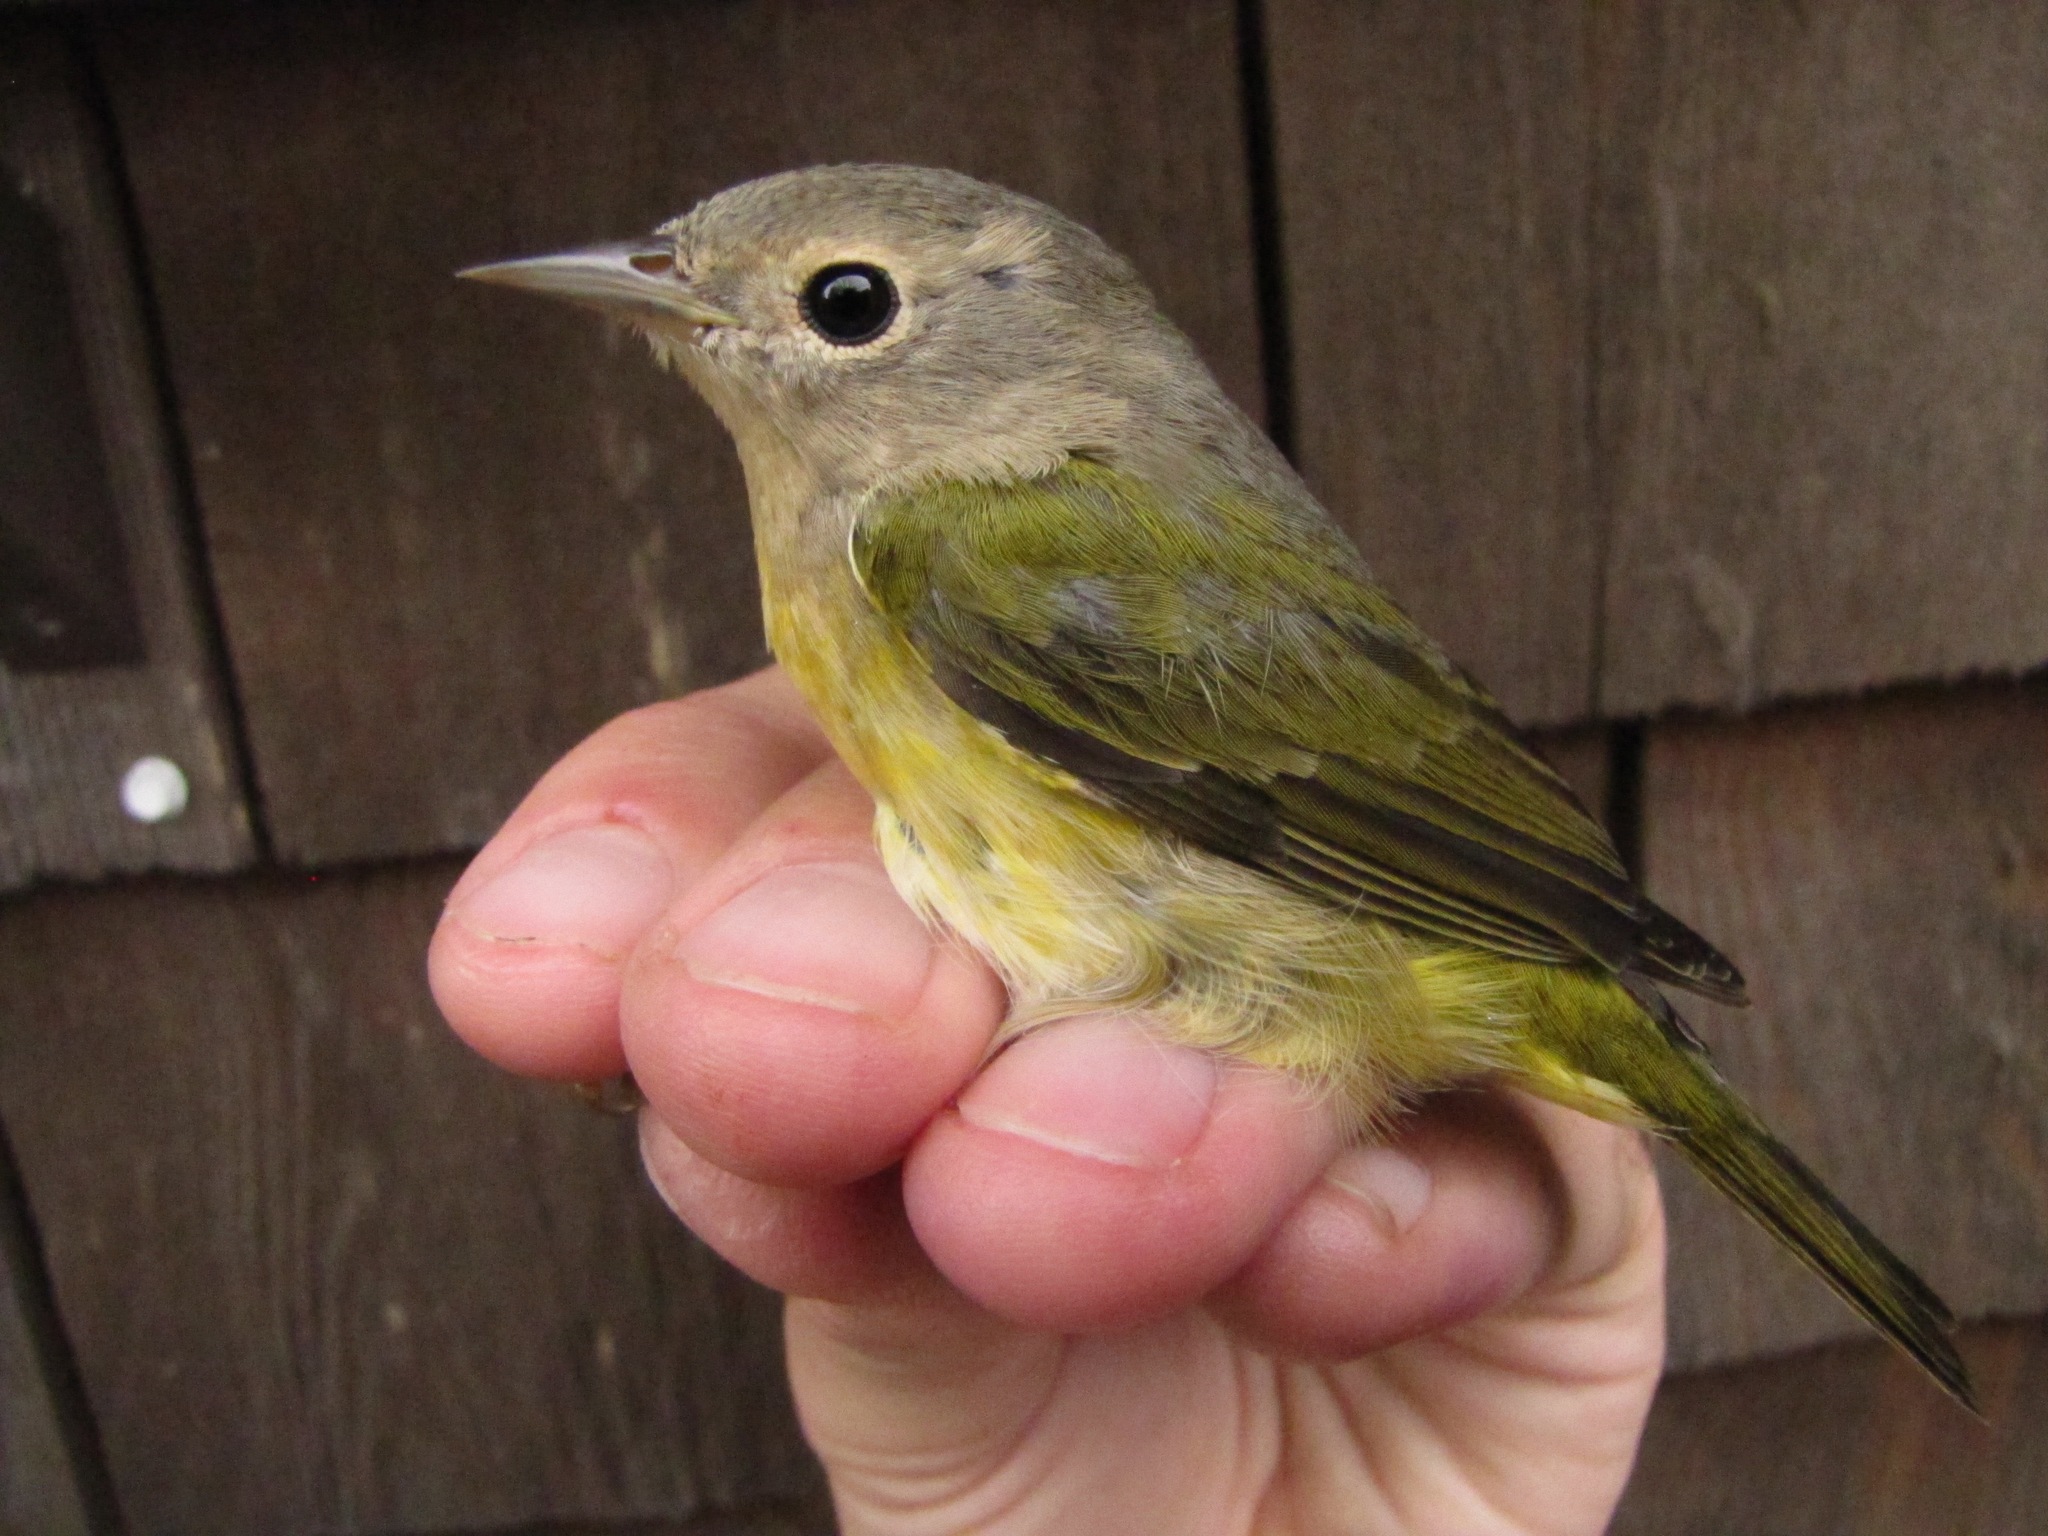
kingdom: Animalia
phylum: Chordata
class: Aves
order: Passeriformes
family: Parulidae
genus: Leiothlypis
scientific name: Leiothlypis ruficapilla
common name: Nashville warbler
